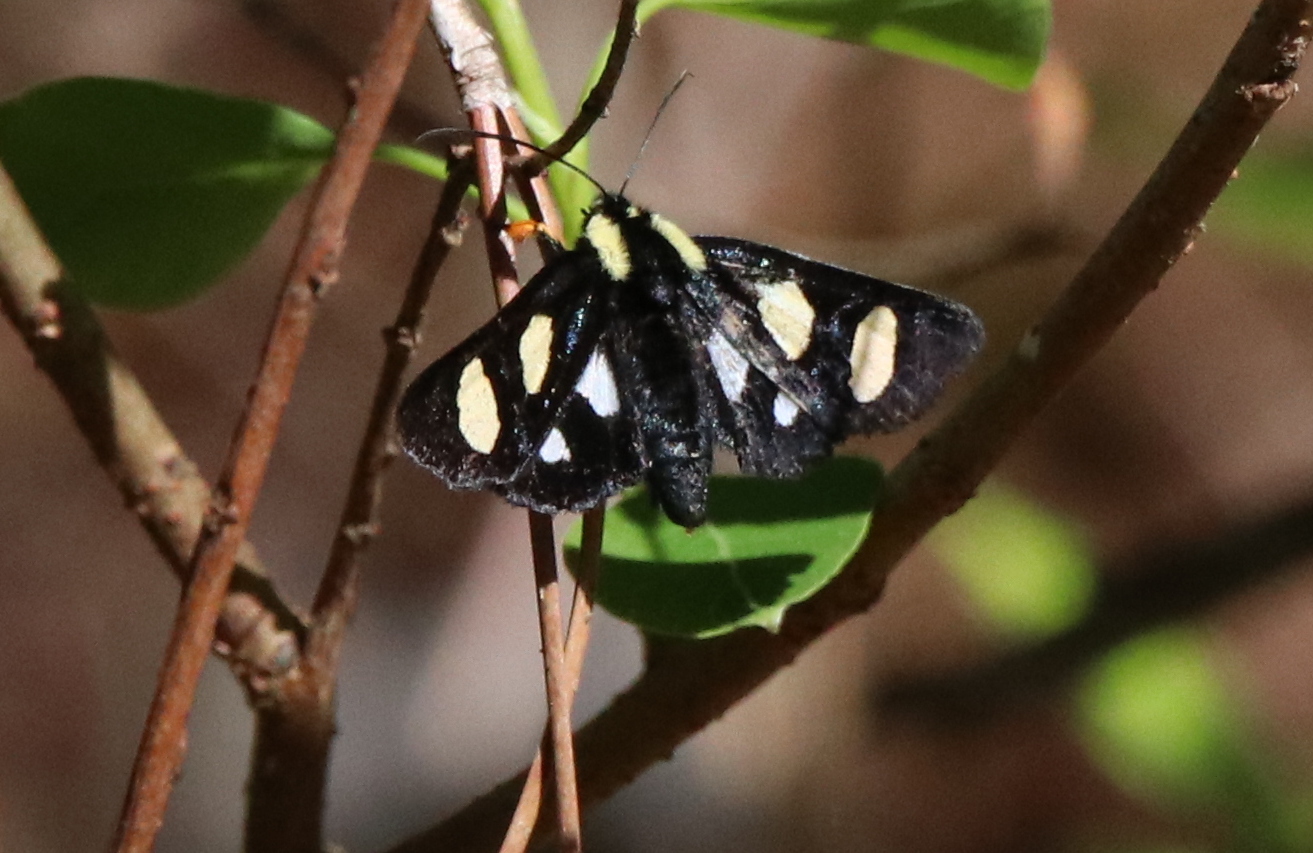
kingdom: Animalia
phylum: Arthropoda
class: Insecta
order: Lepidoptera
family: Noctuidae
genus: Alypia
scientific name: Alypia octomaculata
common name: Eight-spotted forester
